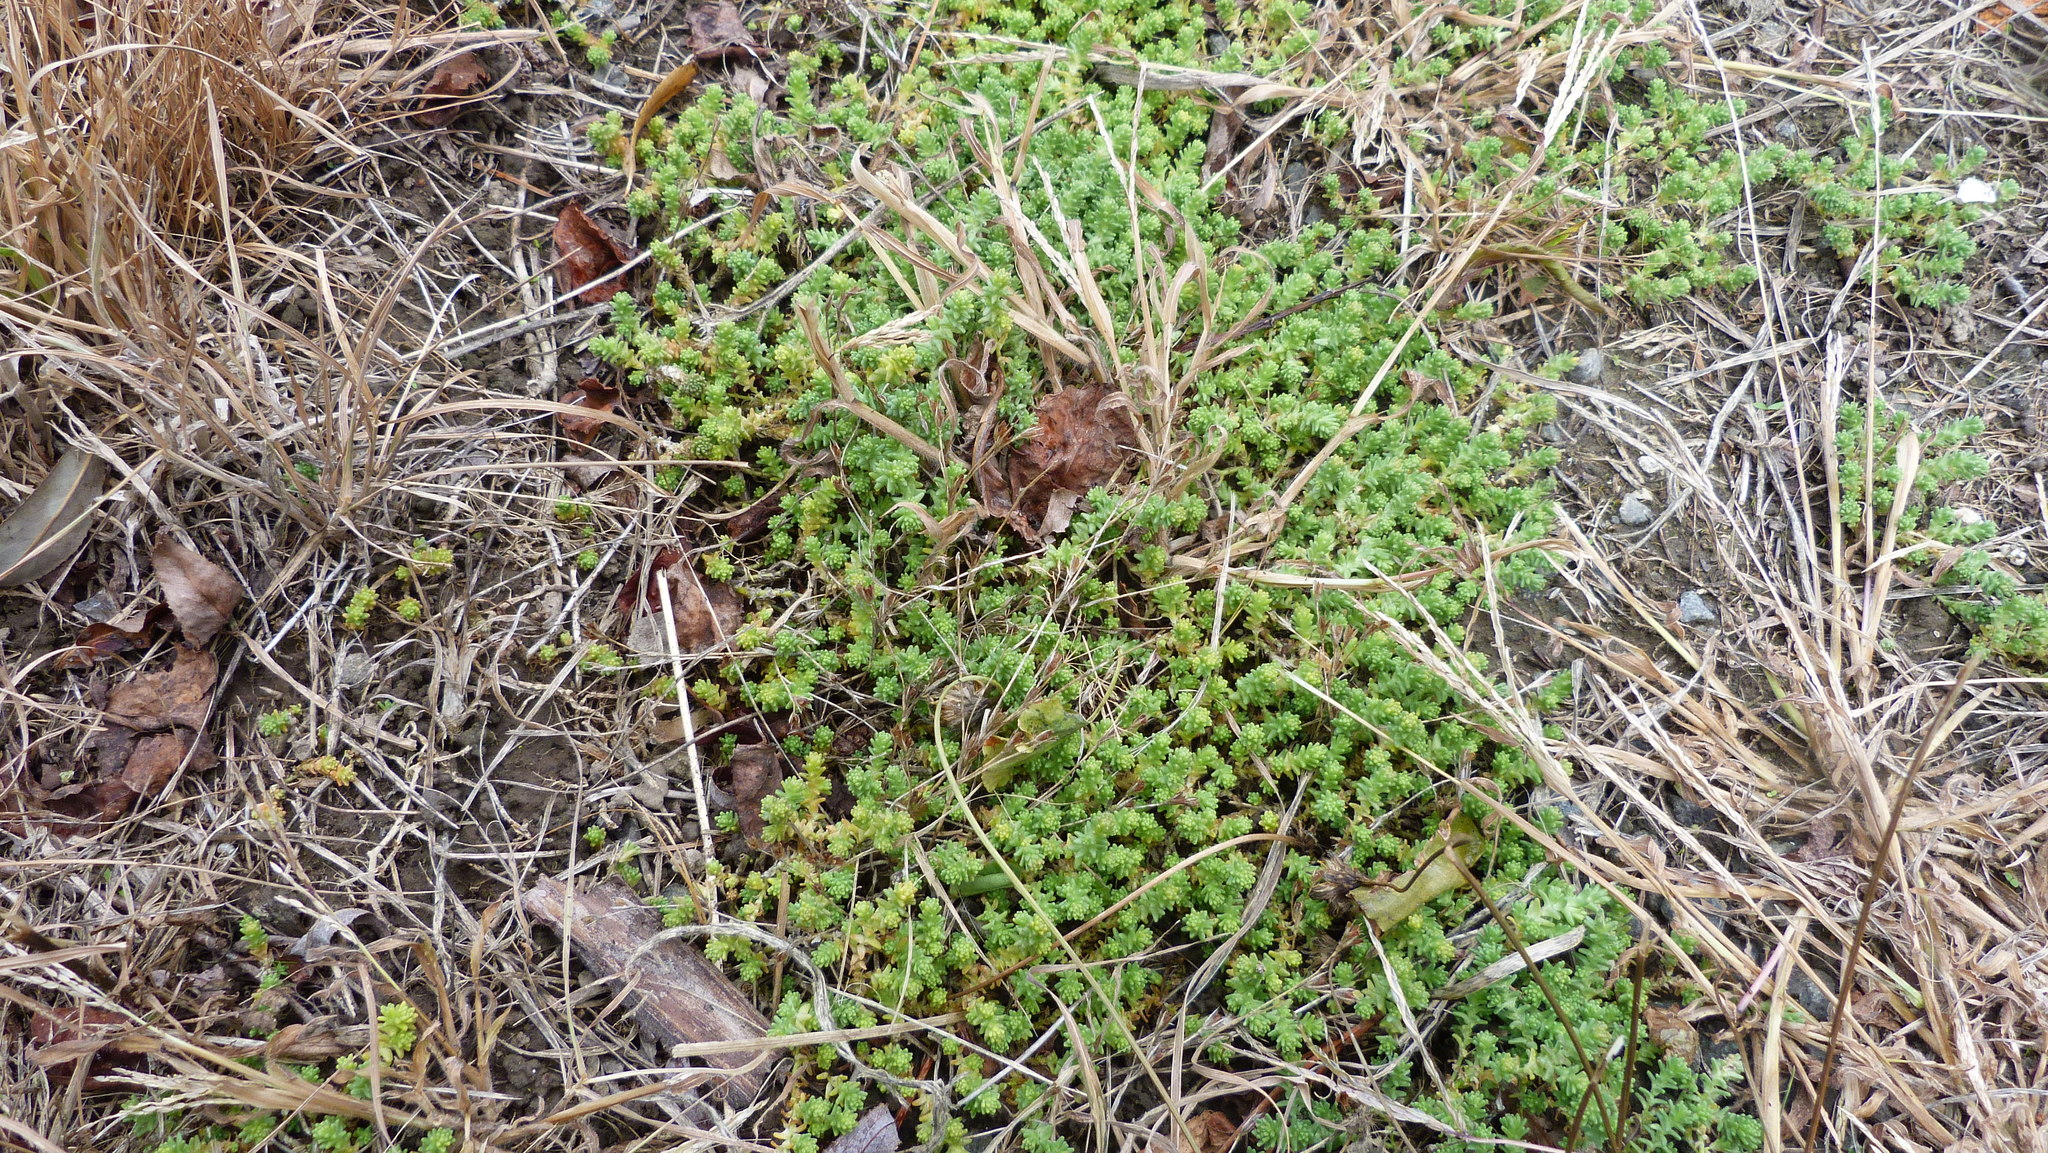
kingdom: Plantae
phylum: Tracheophyta
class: Magnoliopsida
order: Saxifragales
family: Crassulaceae
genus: Sedum
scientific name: Sedum acre
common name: Biting stonecrop
